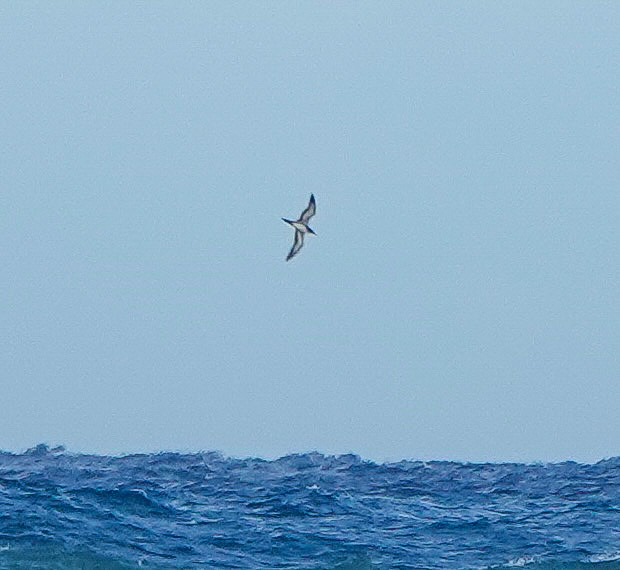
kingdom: Animalia
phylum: Chordata
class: Aves
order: Procellariiformes
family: Procellariidae
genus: Puffinus
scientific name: Puffinus pacificus
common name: Wedge-tailed shearwater
